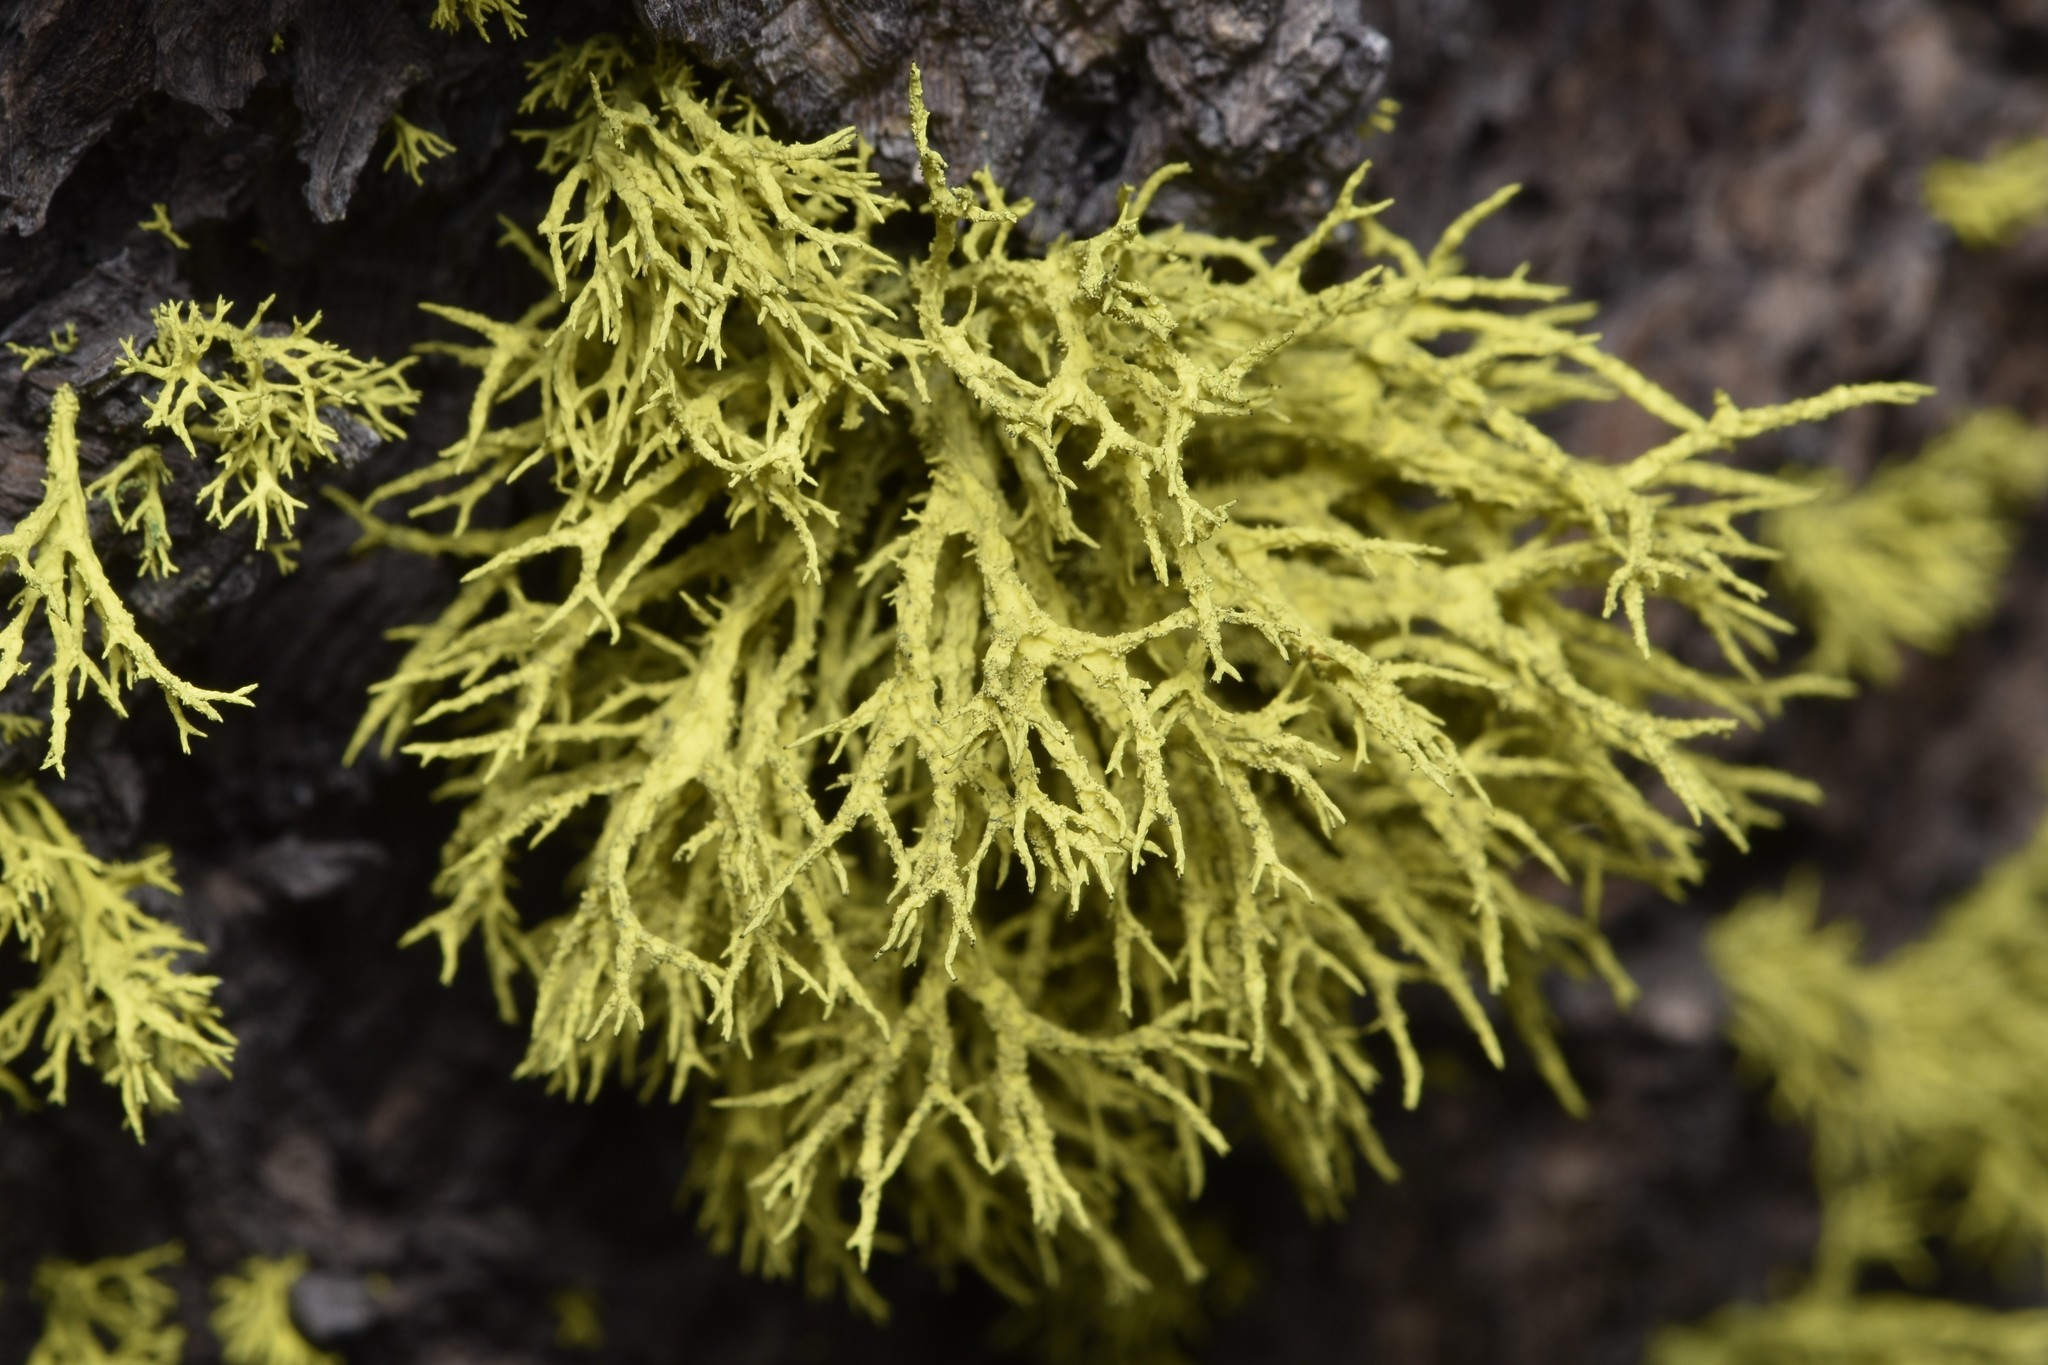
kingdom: Fungi
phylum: Ascomycota
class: Lecanoromycetes
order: Lecanorales
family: Parmeliaceae
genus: Letharia
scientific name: Letharia vulpina
